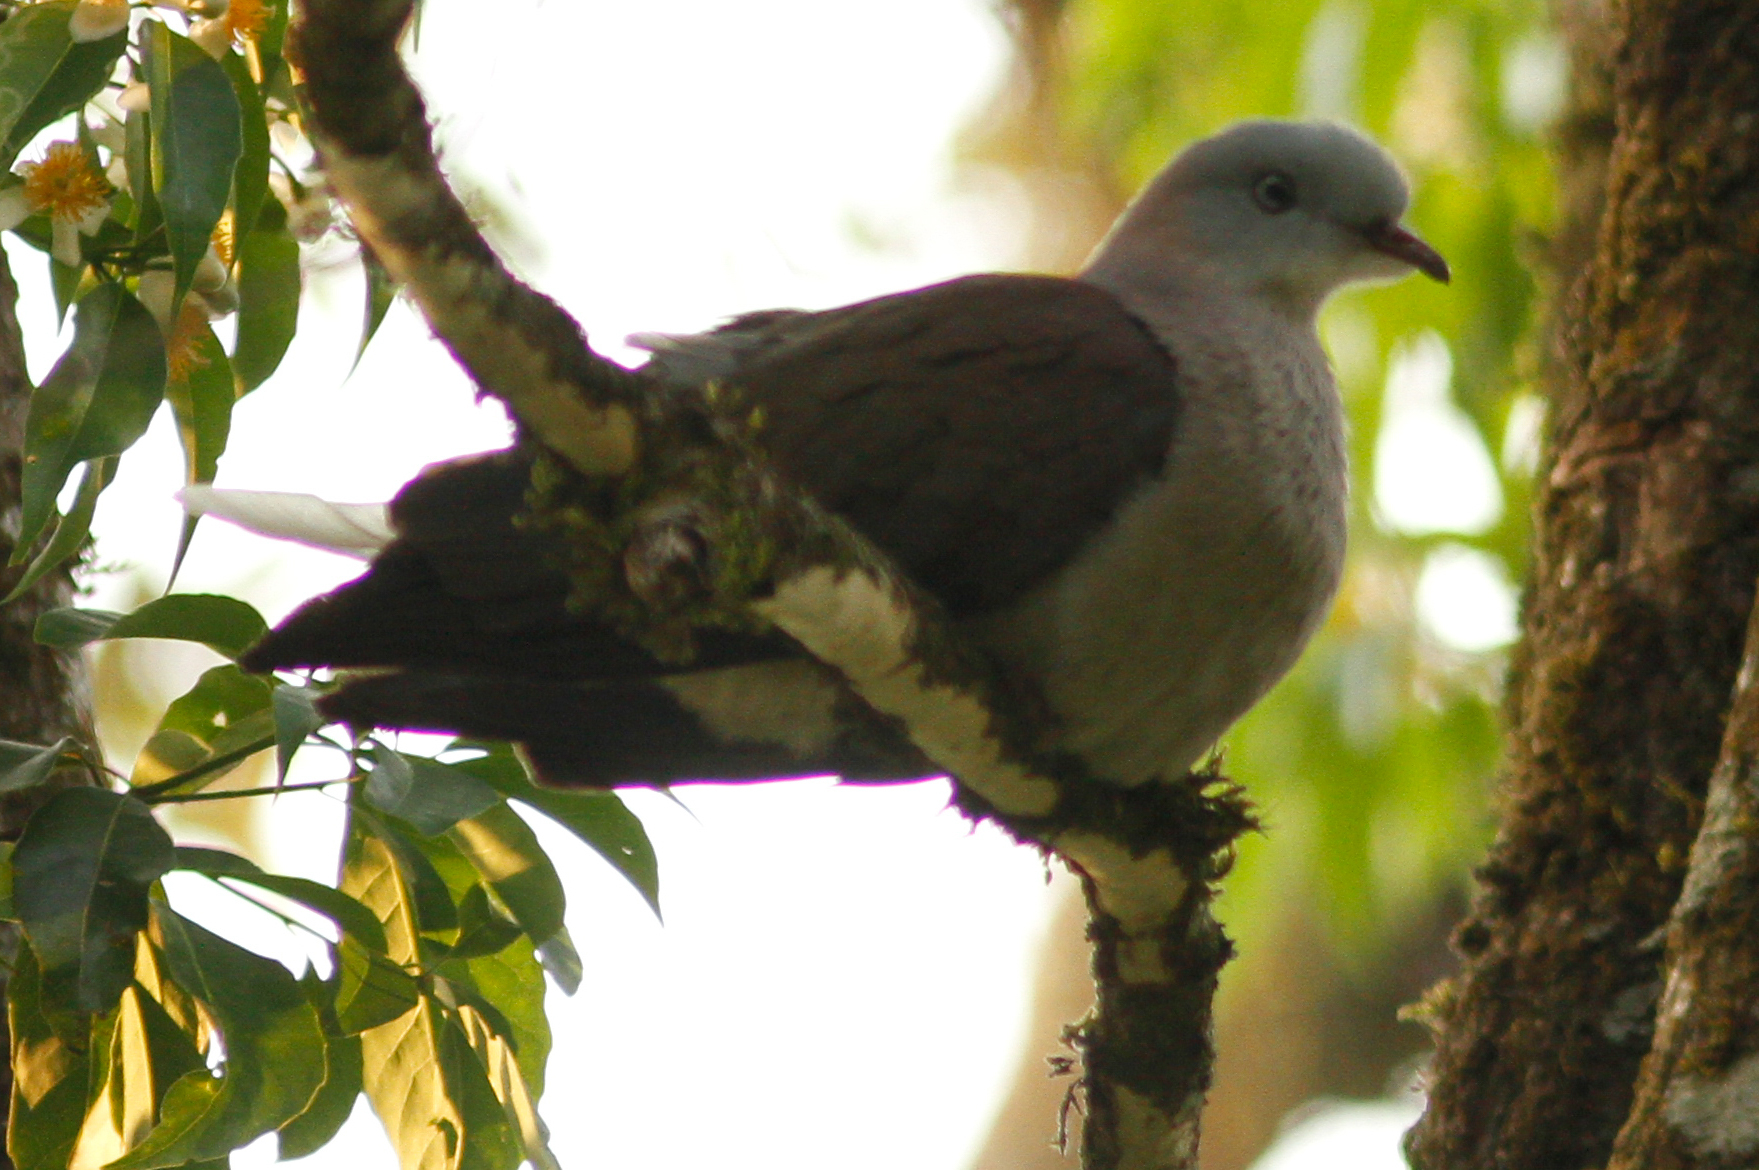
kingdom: Animalia
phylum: Chordata
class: Aves
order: Columbiformes
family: Columbidae
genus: Ducula
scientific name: Ducula badia
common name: Mountain imperial pigeon
